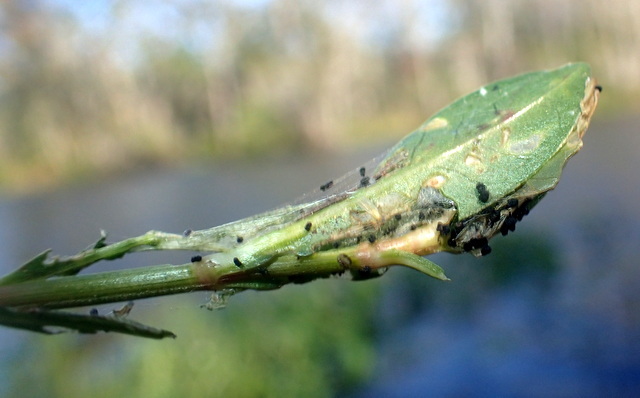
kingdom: Animalia
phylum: Arthropoda
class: Insecta
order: Lepidoptera
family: Crambidae
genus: Herpetogramma
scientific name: Herpetogramma bipunctalis
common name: Southern beet webworm
